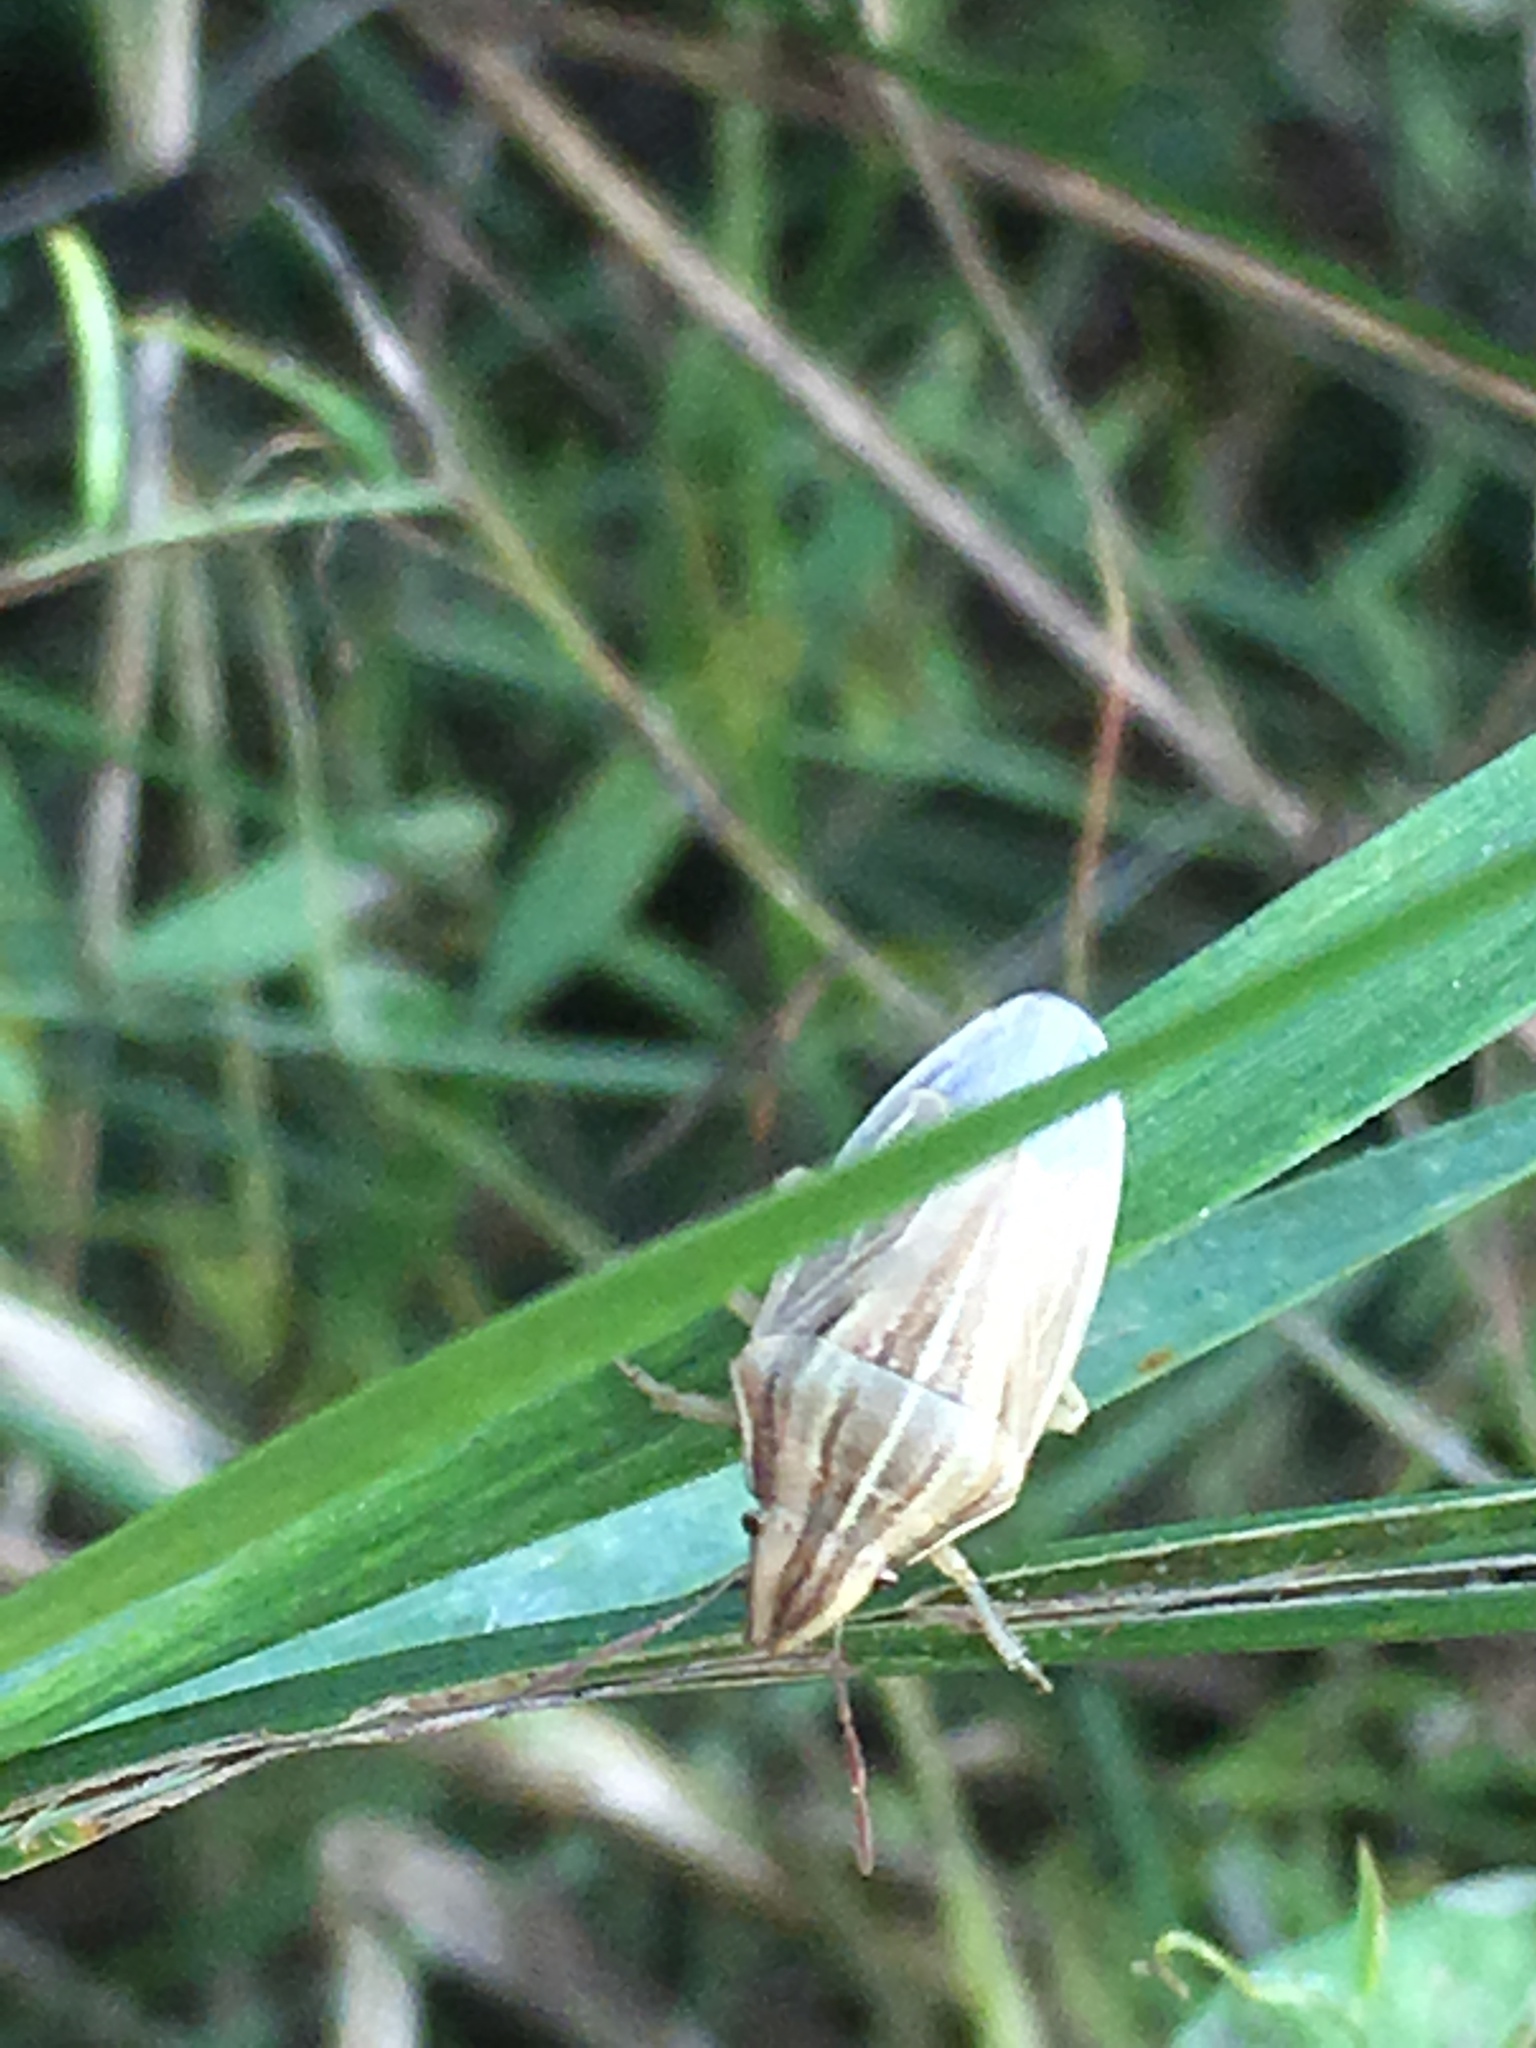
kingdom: Animalia
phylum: Arthropoda
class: Insecta
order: Hemiptera
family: Pentatomidae
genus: Aelia
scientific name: Aelia acuminata
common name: Bishop's mitre
